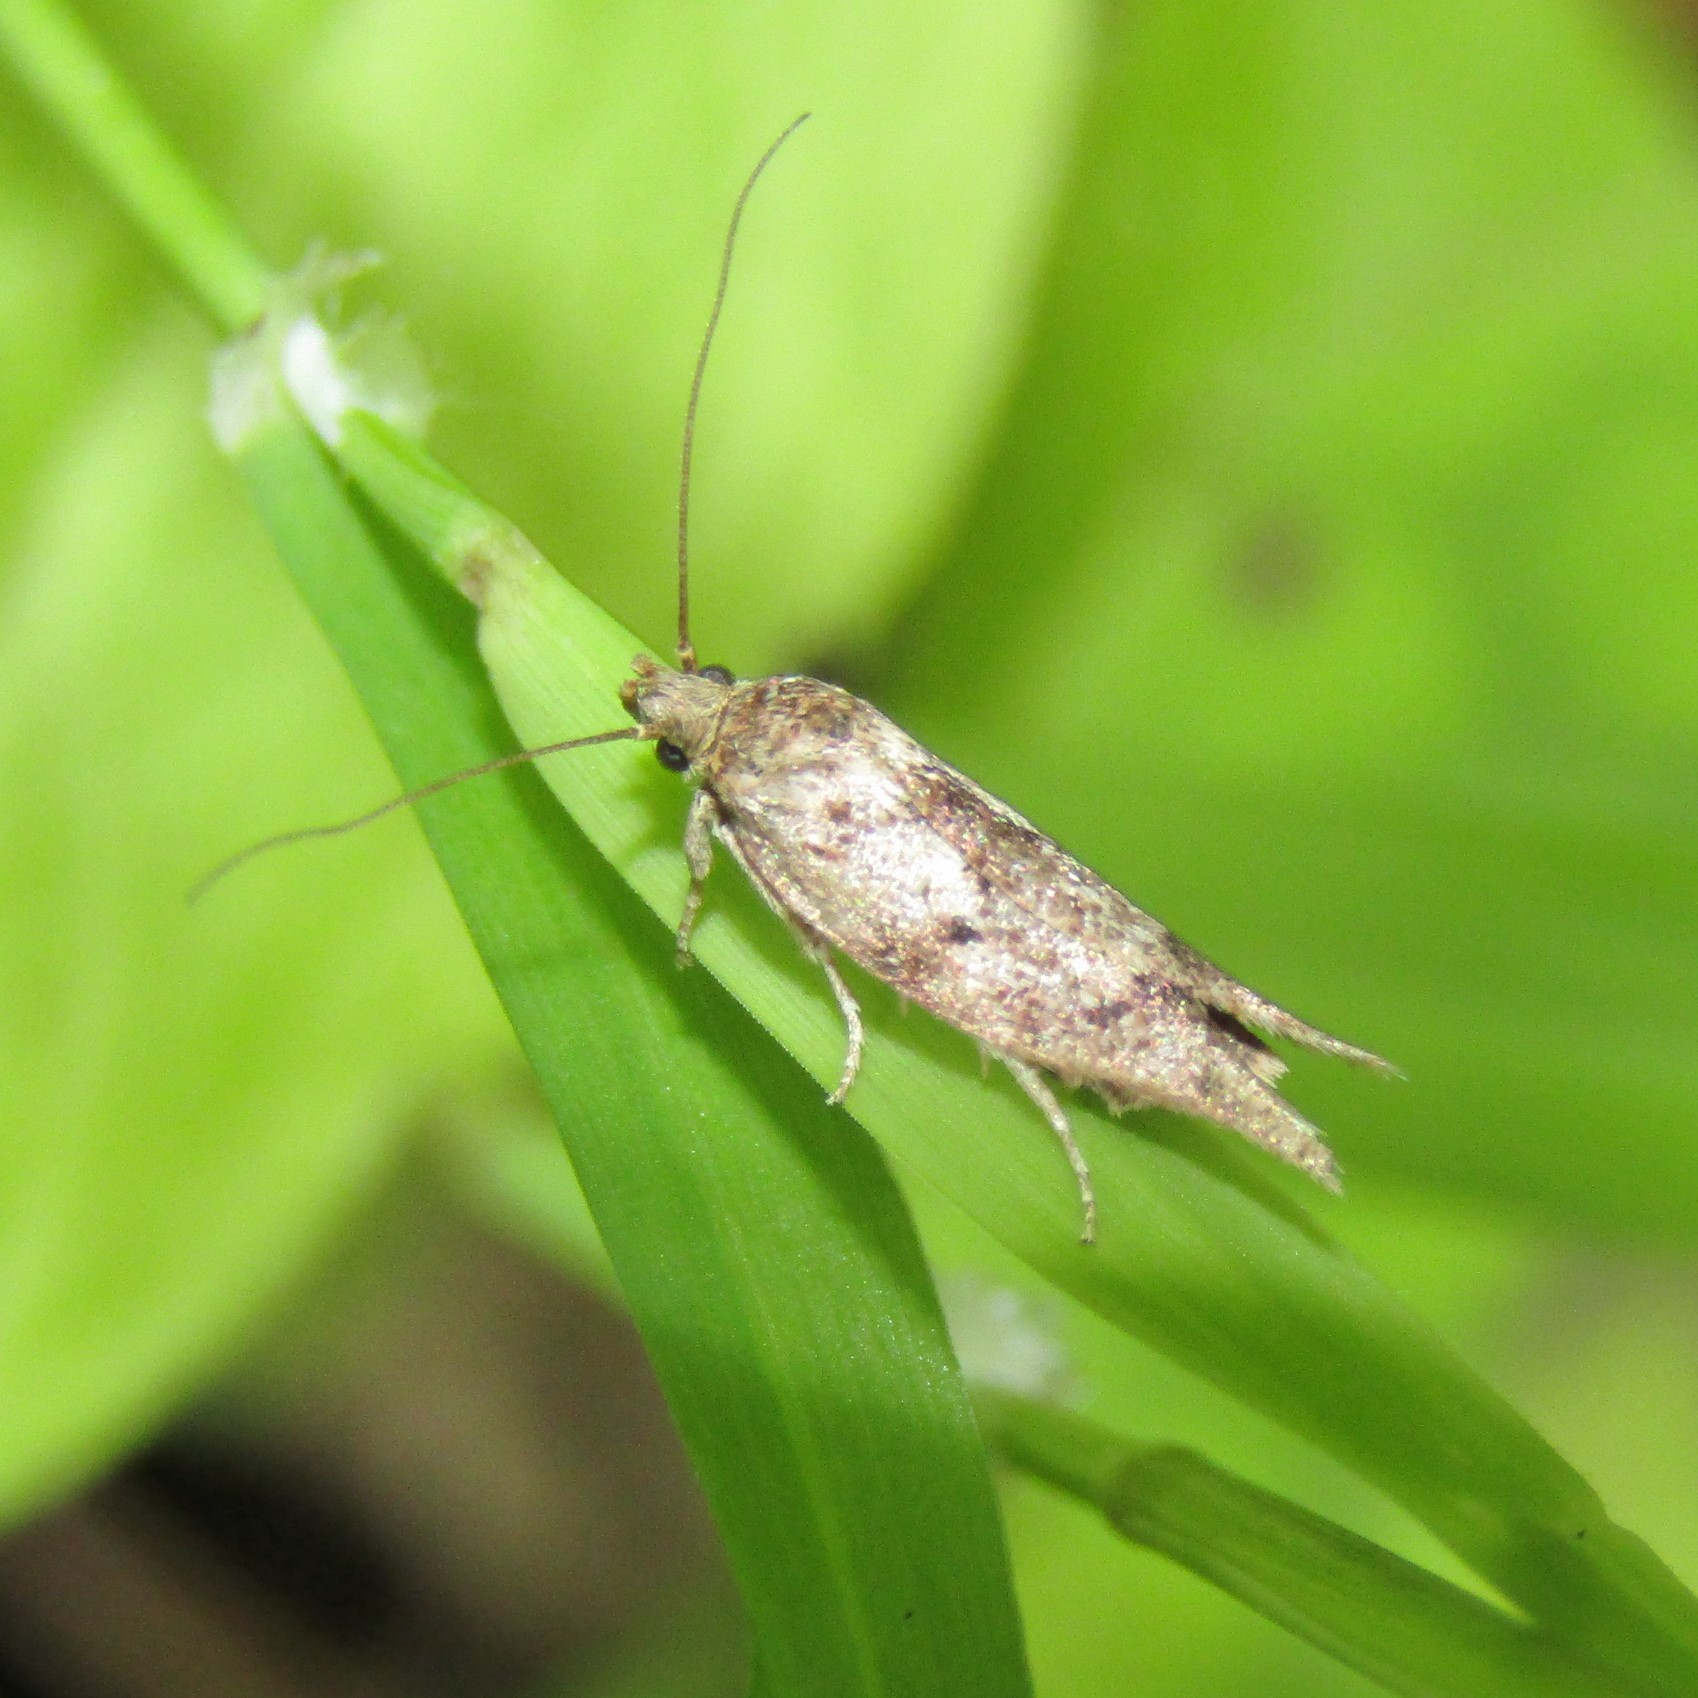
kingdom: Animalia
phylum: Arthropoda
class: Insecta
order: Lepidoptera
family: Oecophoridae
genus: Chersadaula
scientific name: Chersadaula ochrogastra
